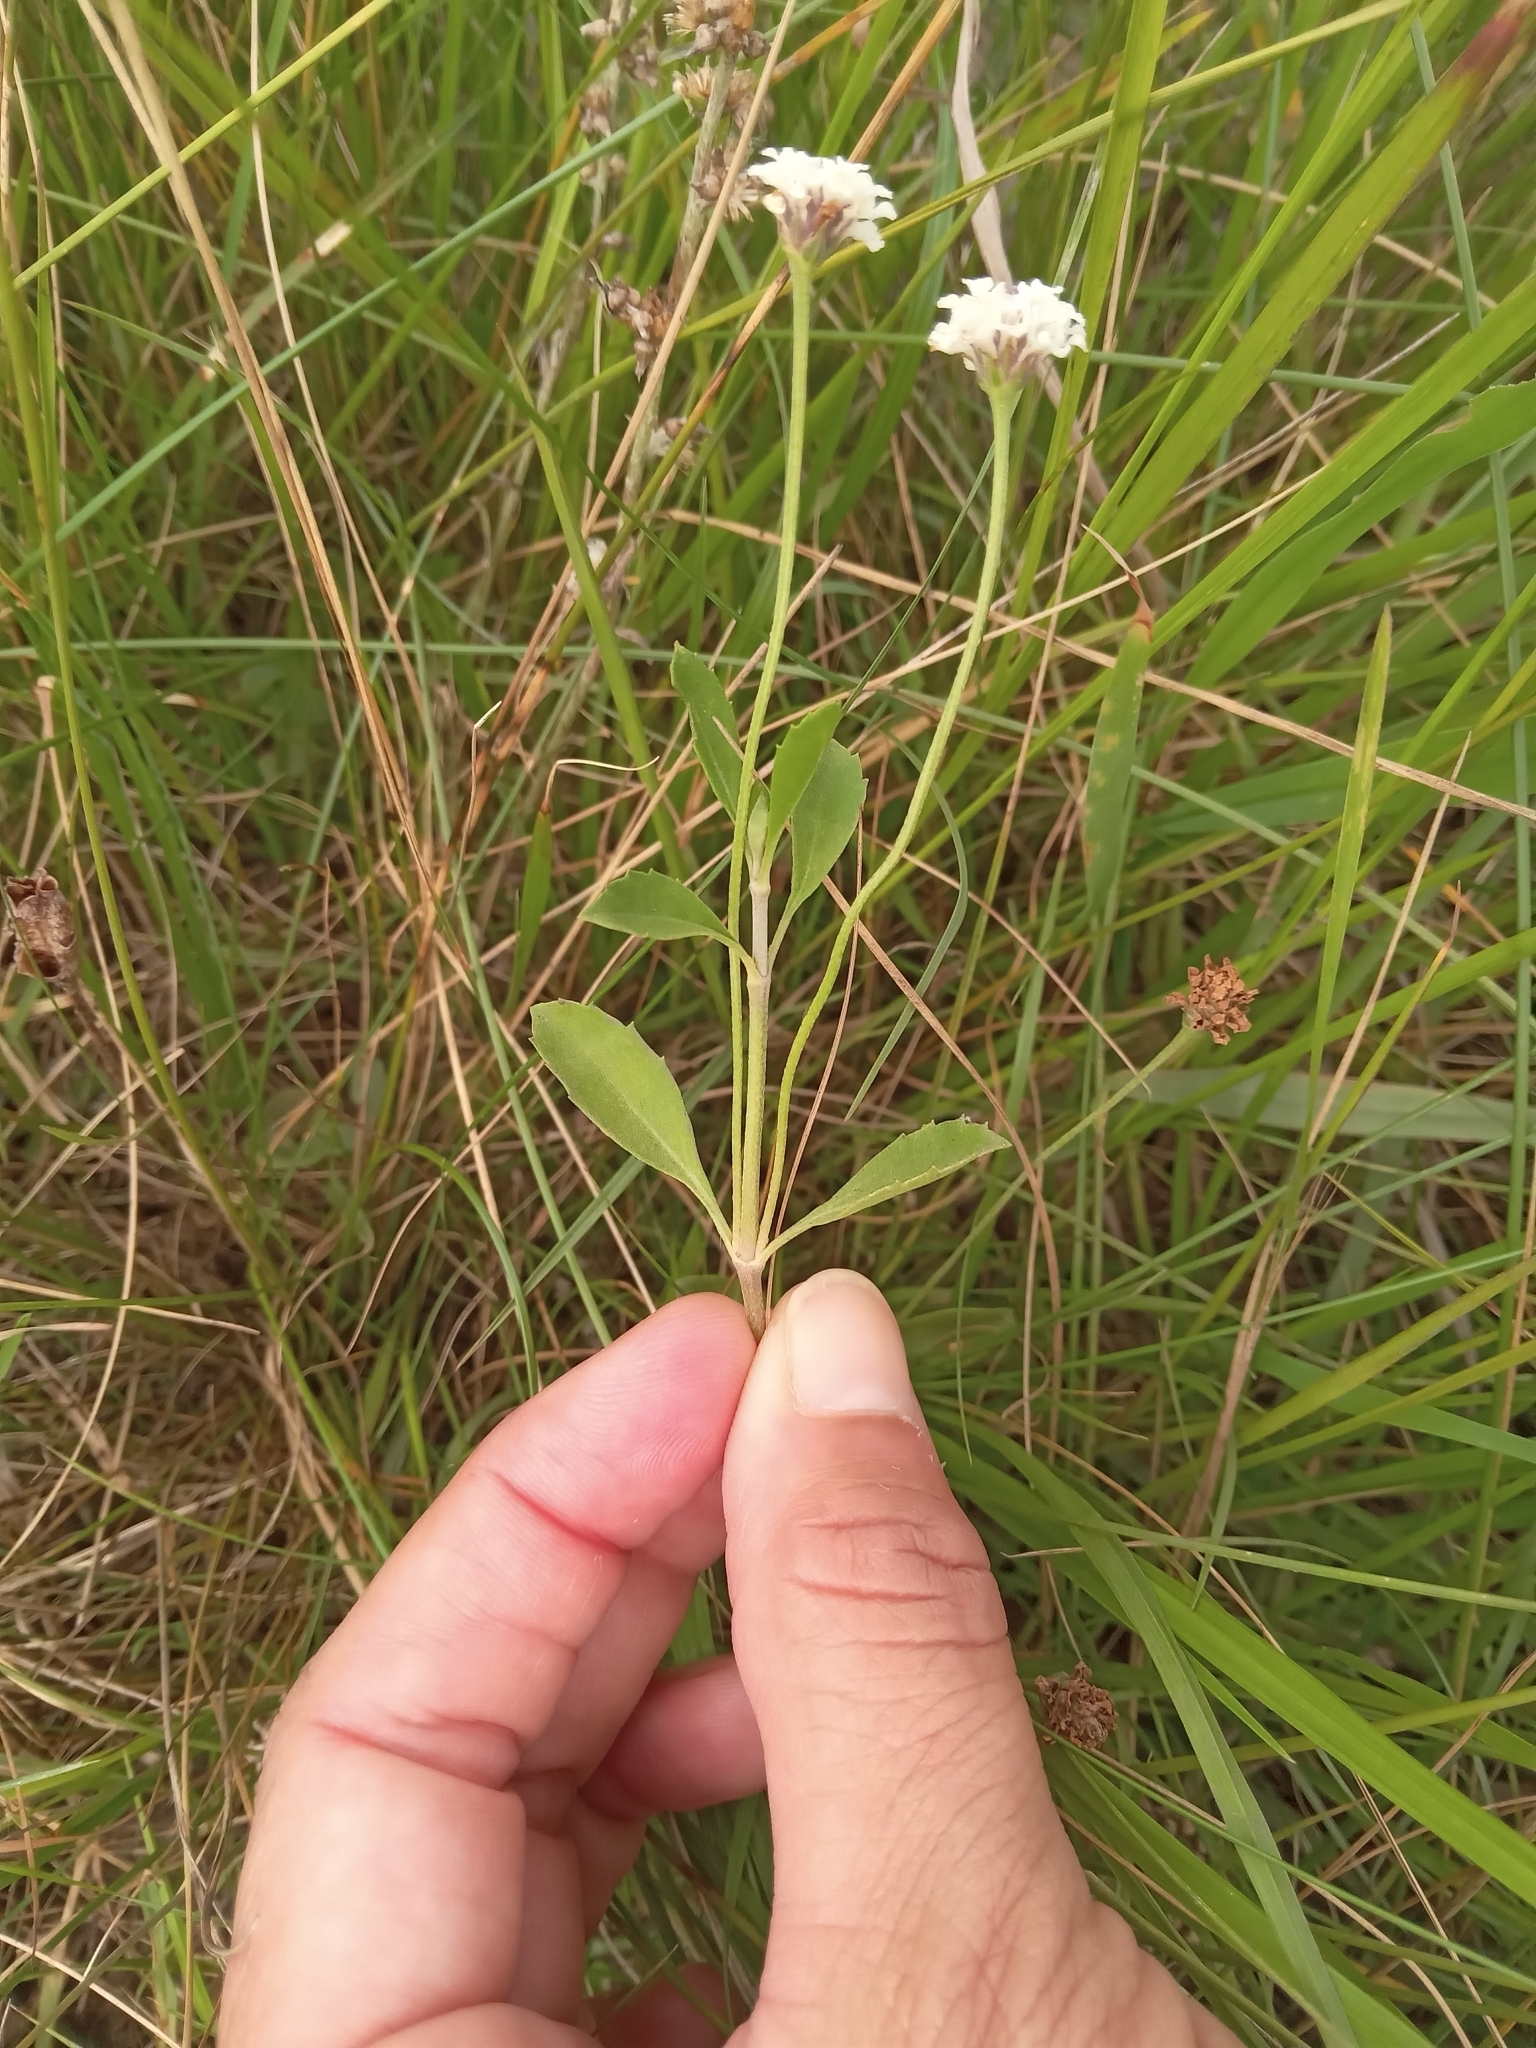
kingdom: Plantae
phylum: Tracheophyta
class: Magnoliopsida
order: Lamiales
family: Verbenaceae
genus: Phyla
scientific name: Phyla nodiflora
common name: Frogfruit
